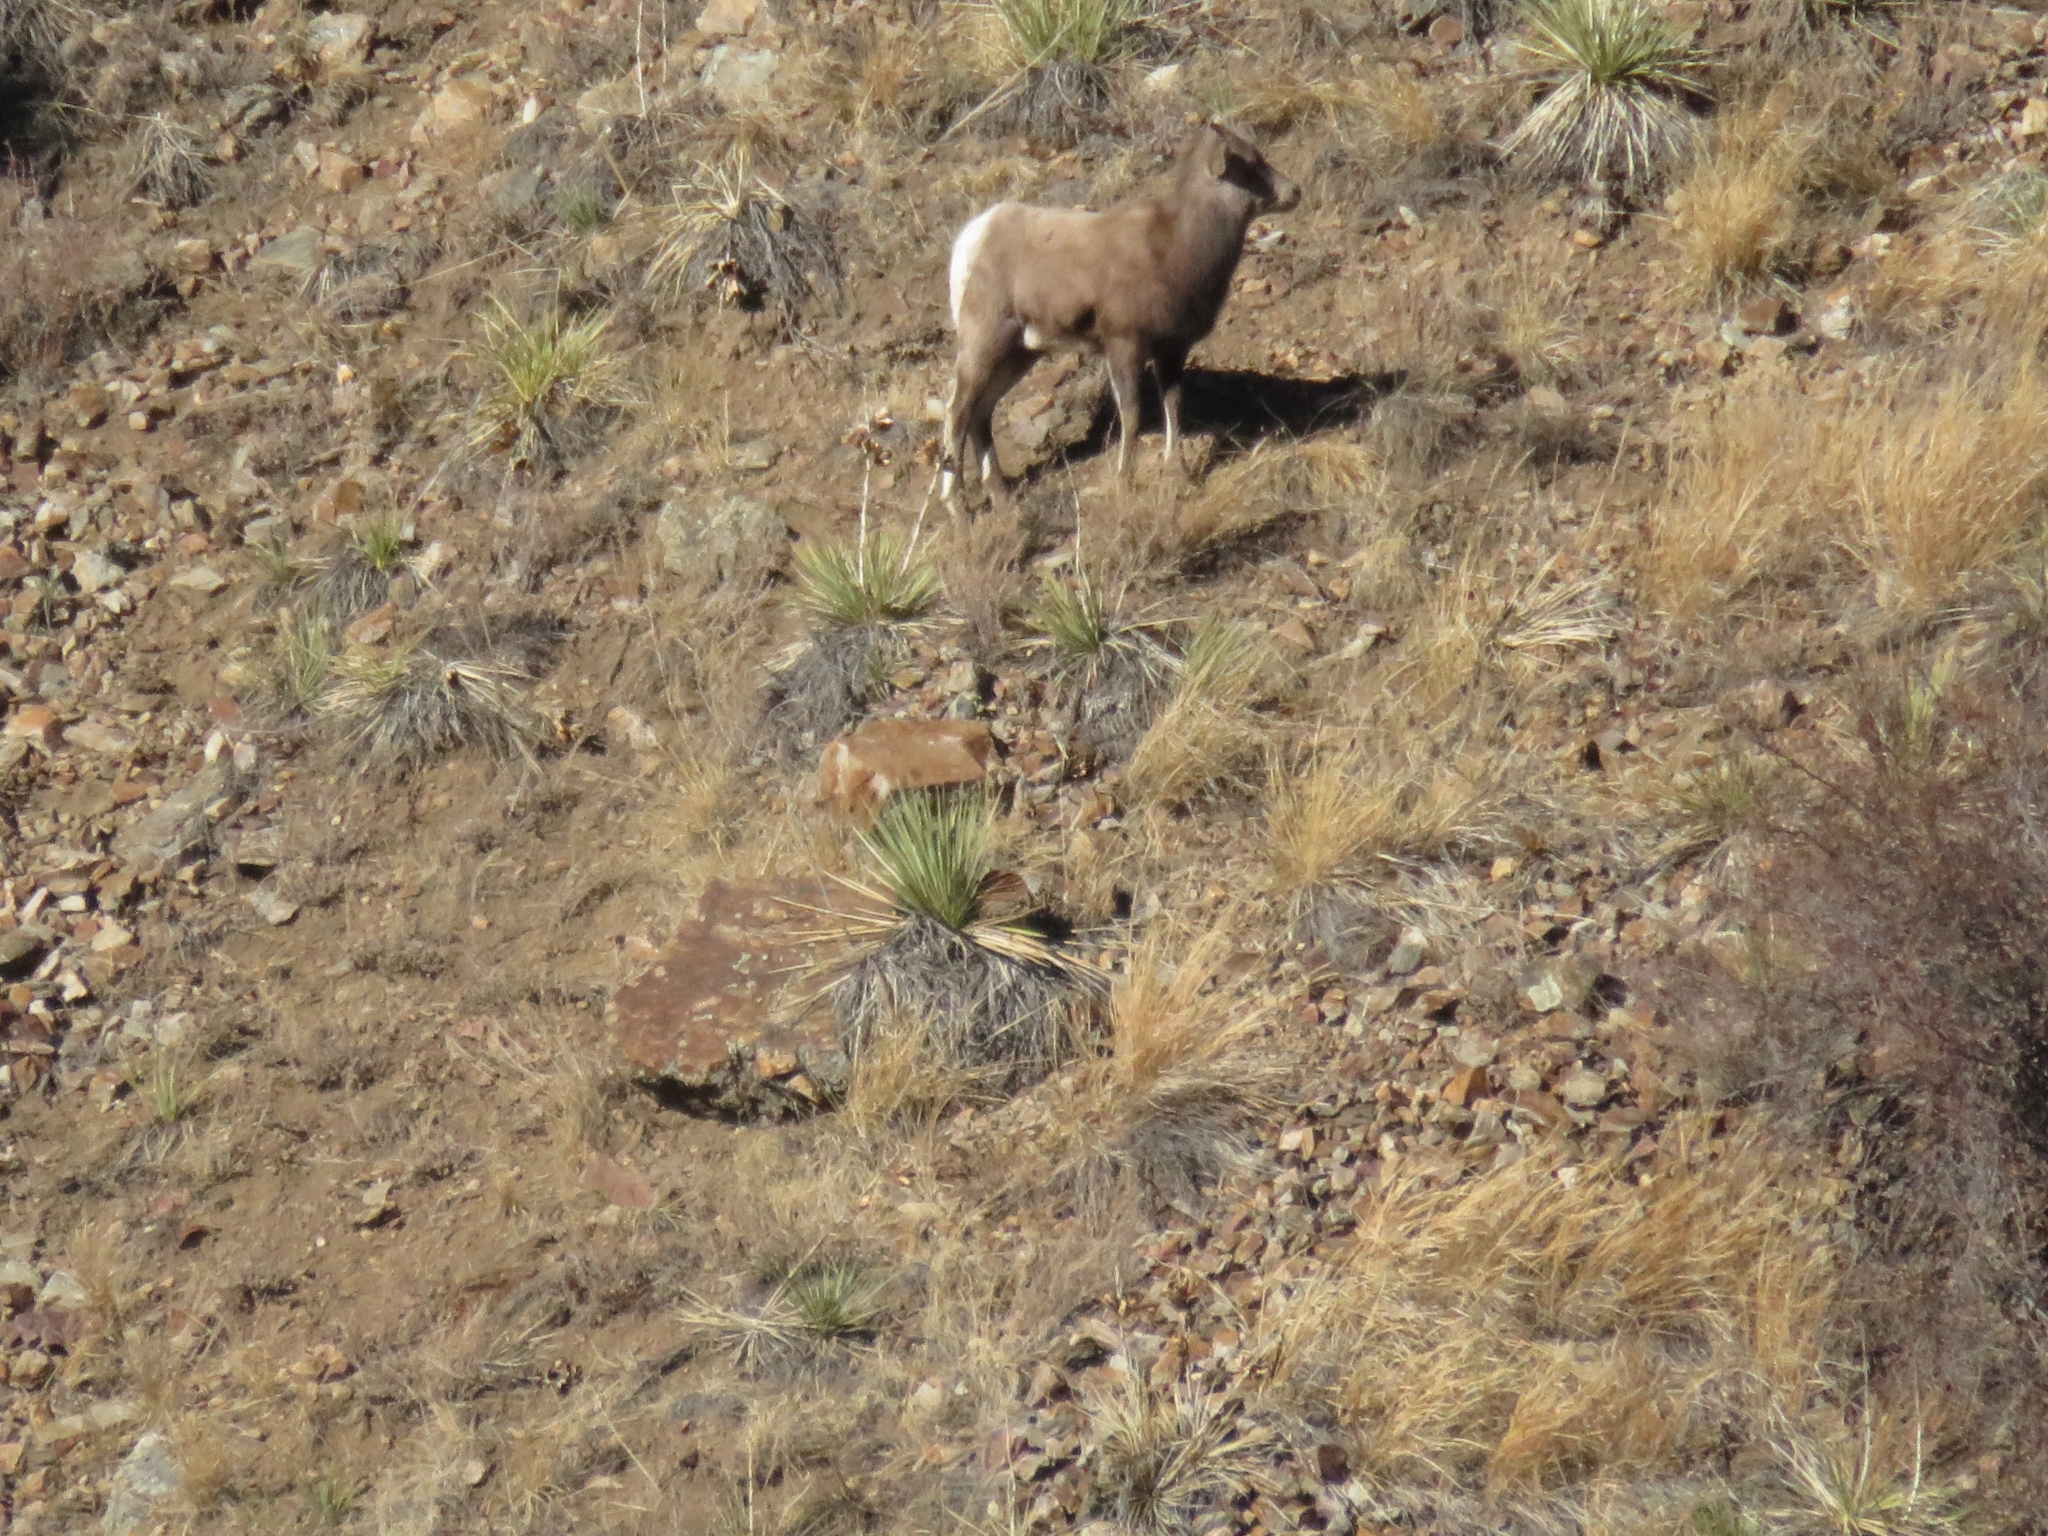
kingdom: Animalia
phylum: Chordata
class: Mammalia
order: Artiodactyla
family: Bovidae
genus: Ovis
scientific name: Ovis canadensis
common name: Bighorn sheep
